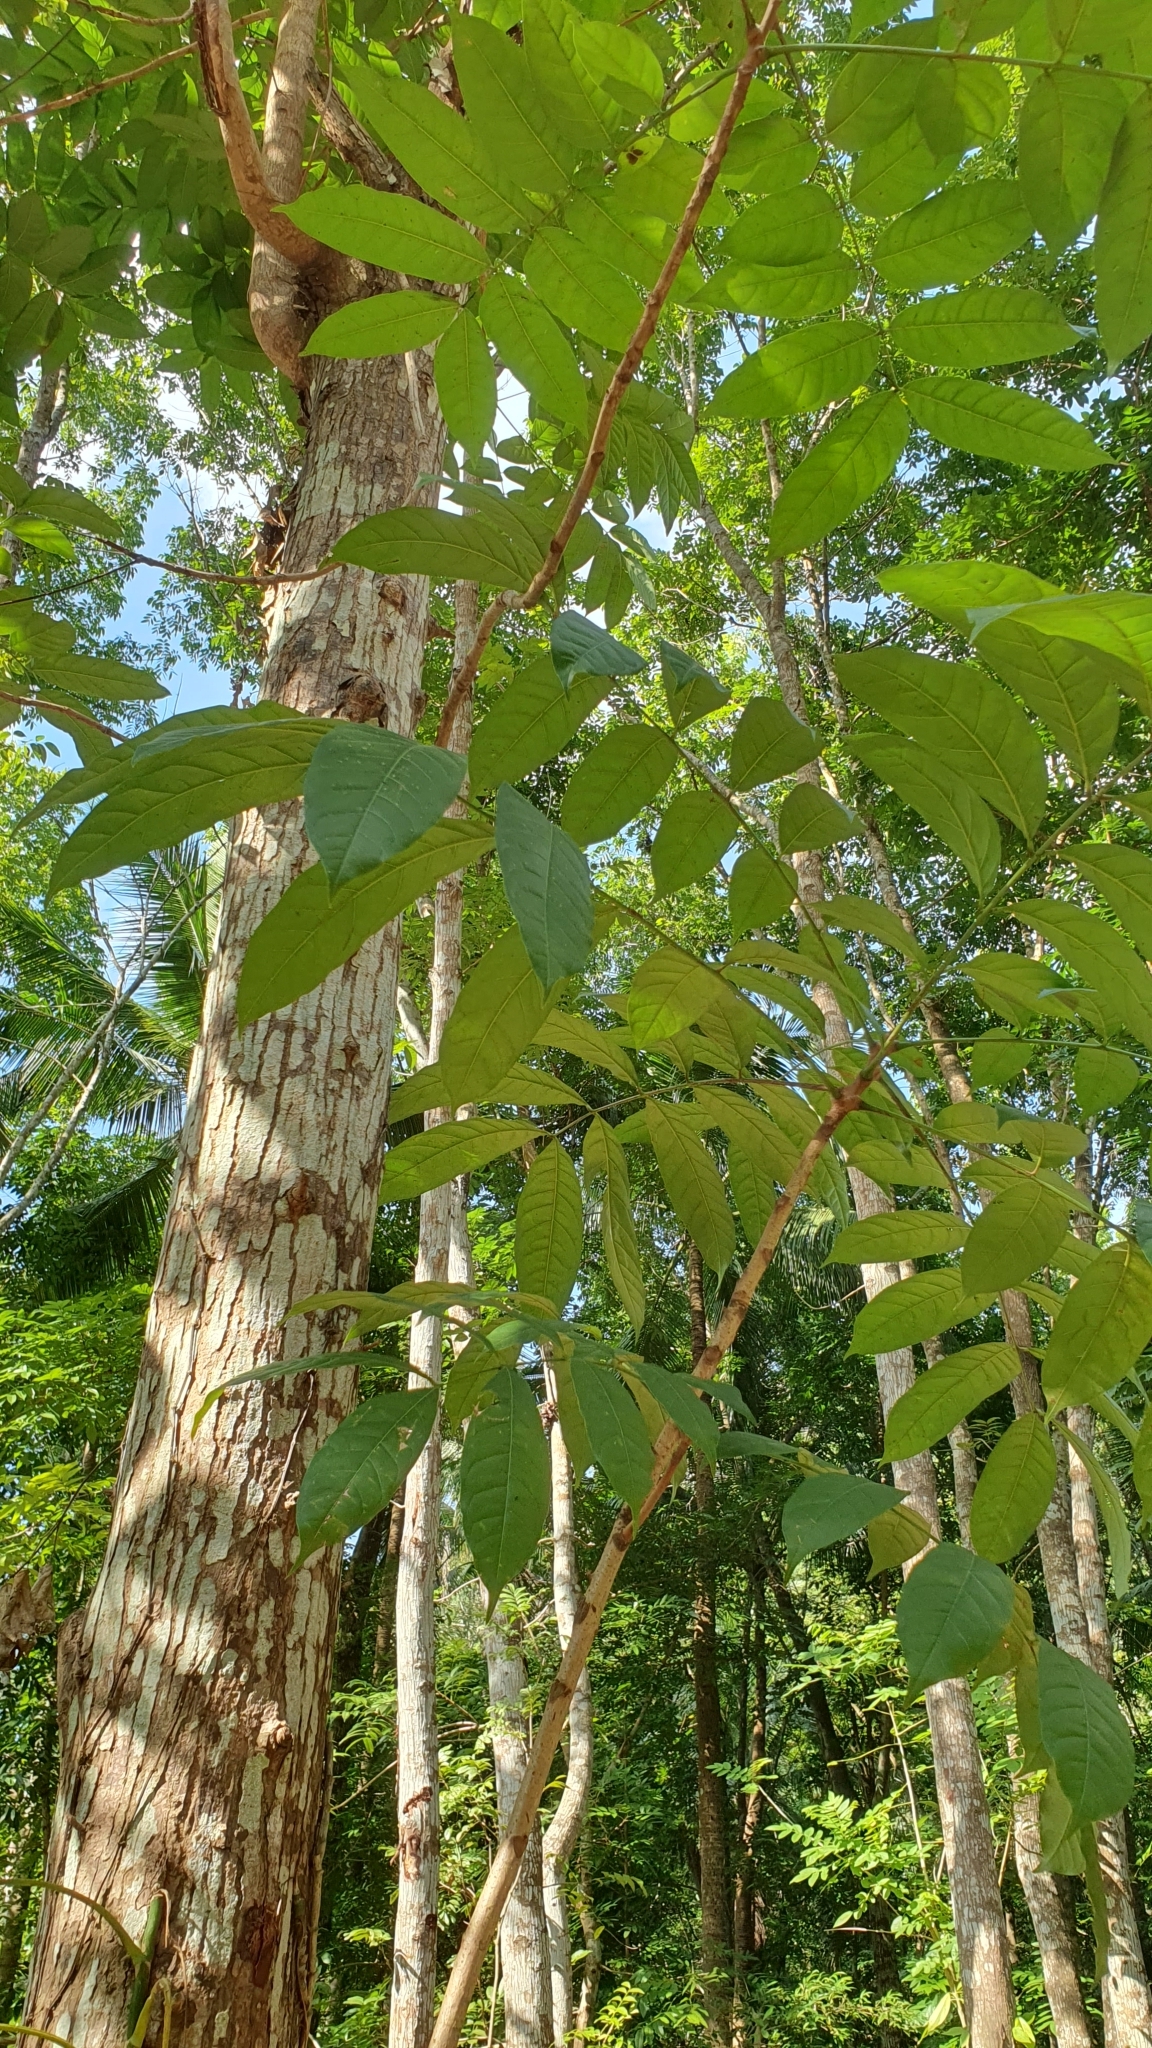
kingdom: Plantae
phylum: Tracheophyta
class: Magnoliopsida
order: Sapindales
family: Meliaceae
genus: Swietenia
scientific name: Swietenia macrophylla
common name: Honduras mahogany
